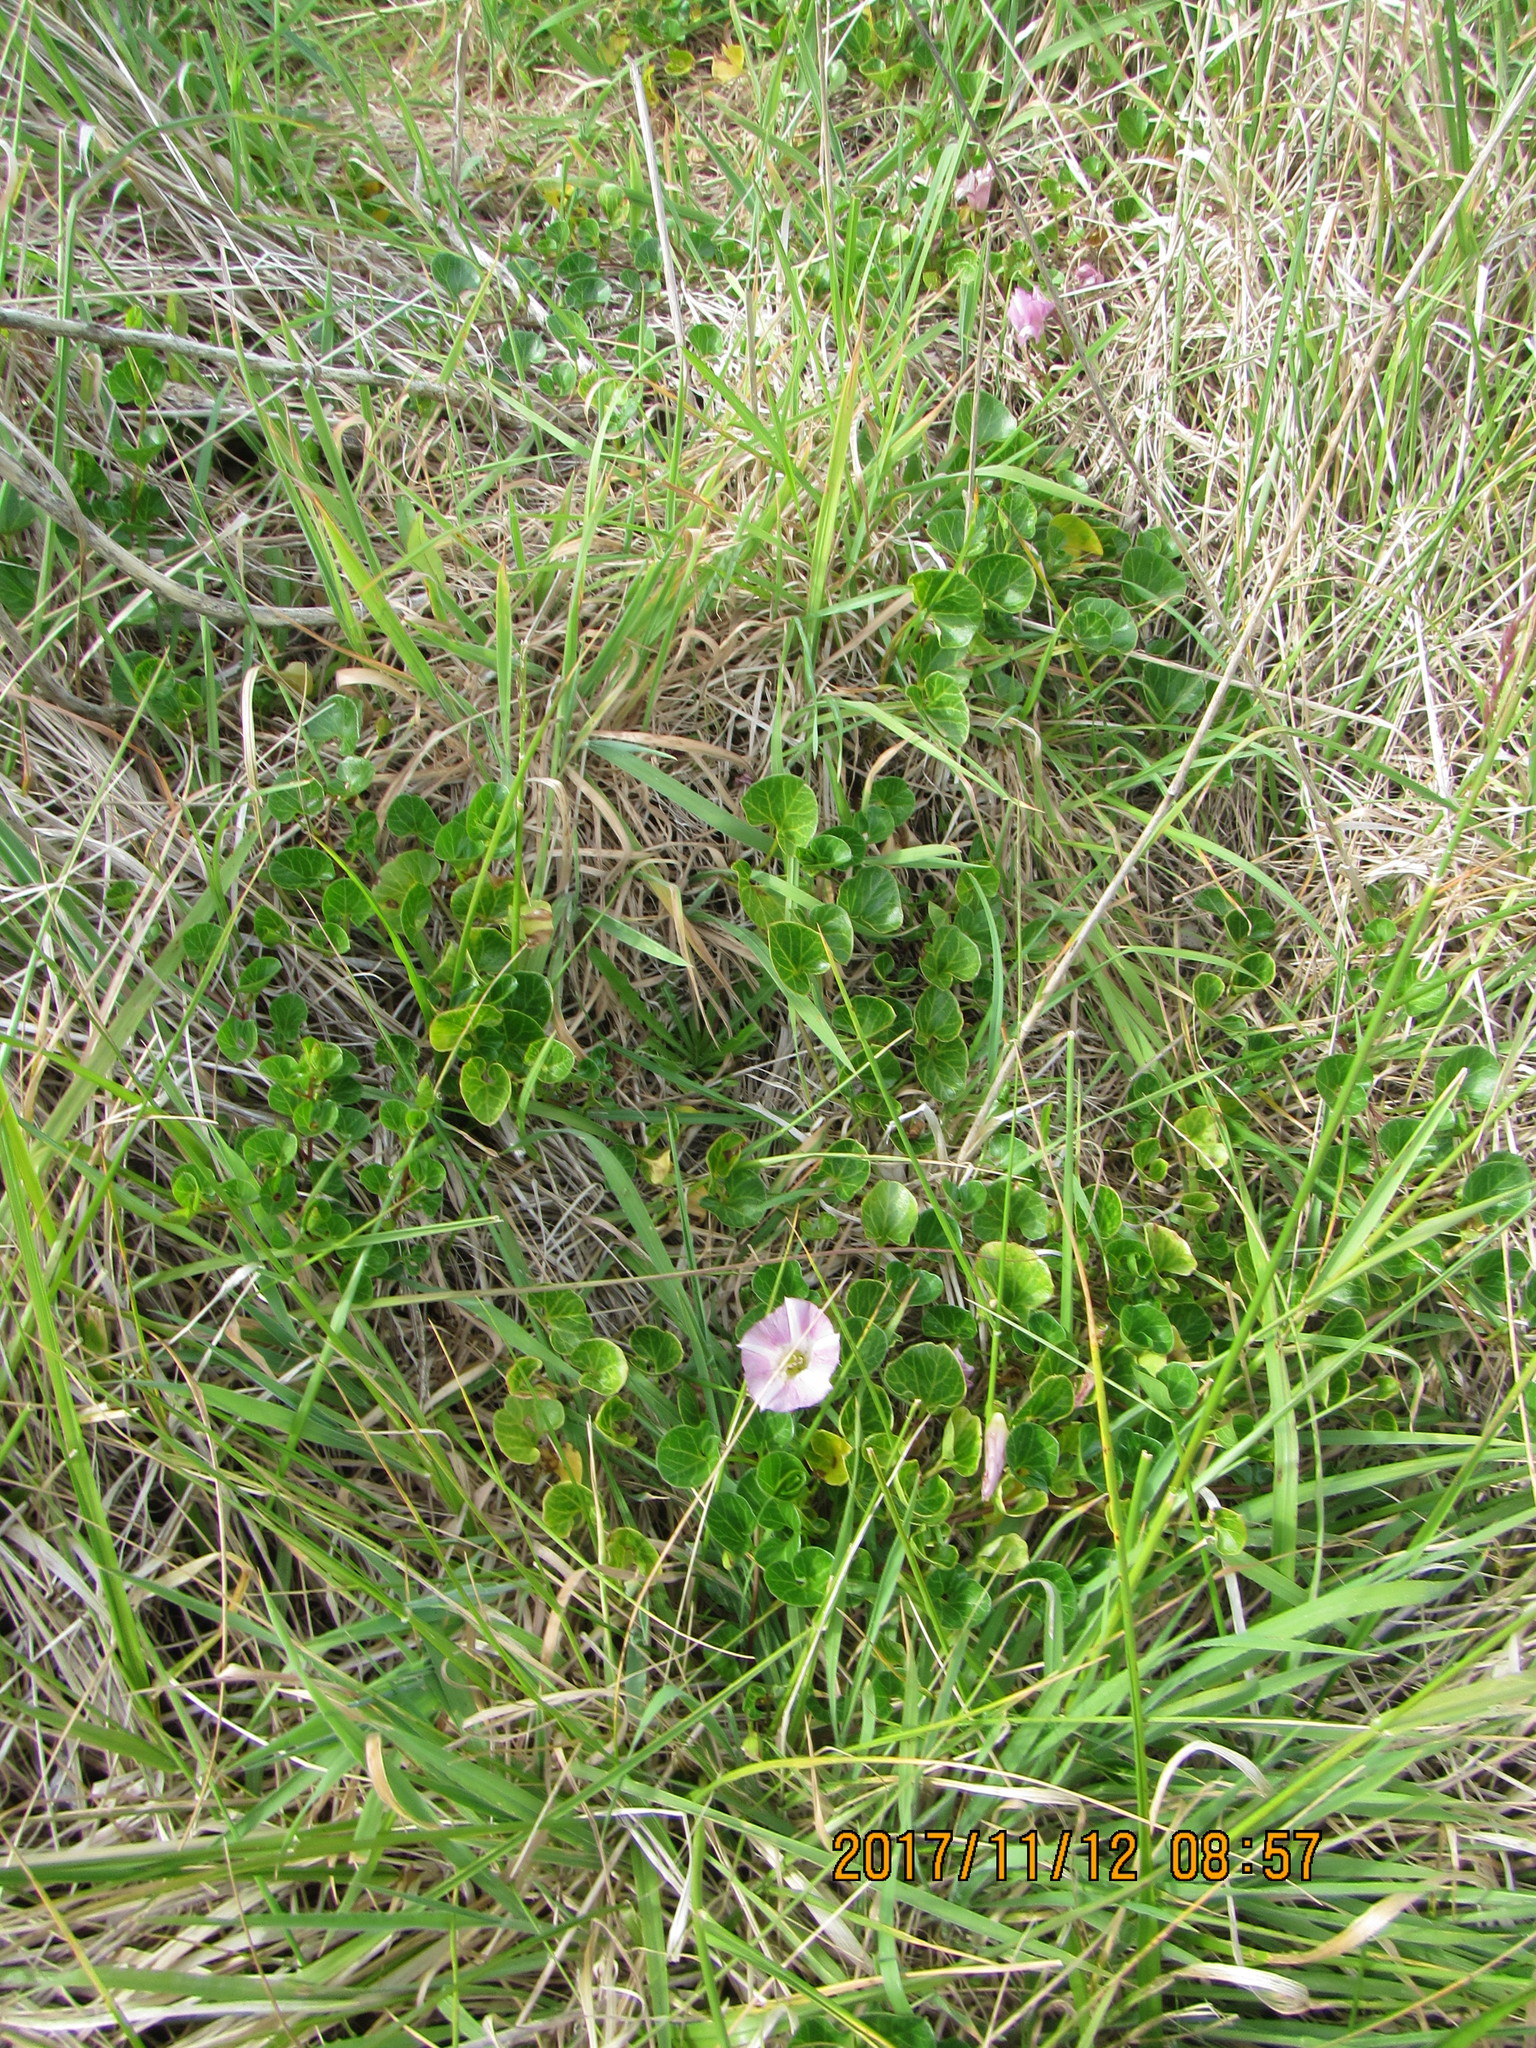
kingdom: Plantae
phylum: Tracheophyta
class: Magnoliopsida
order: Solanales
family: Convolvulaceae
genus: Calystegia
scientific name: Calystegia soldanella
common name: Sea bindweed
